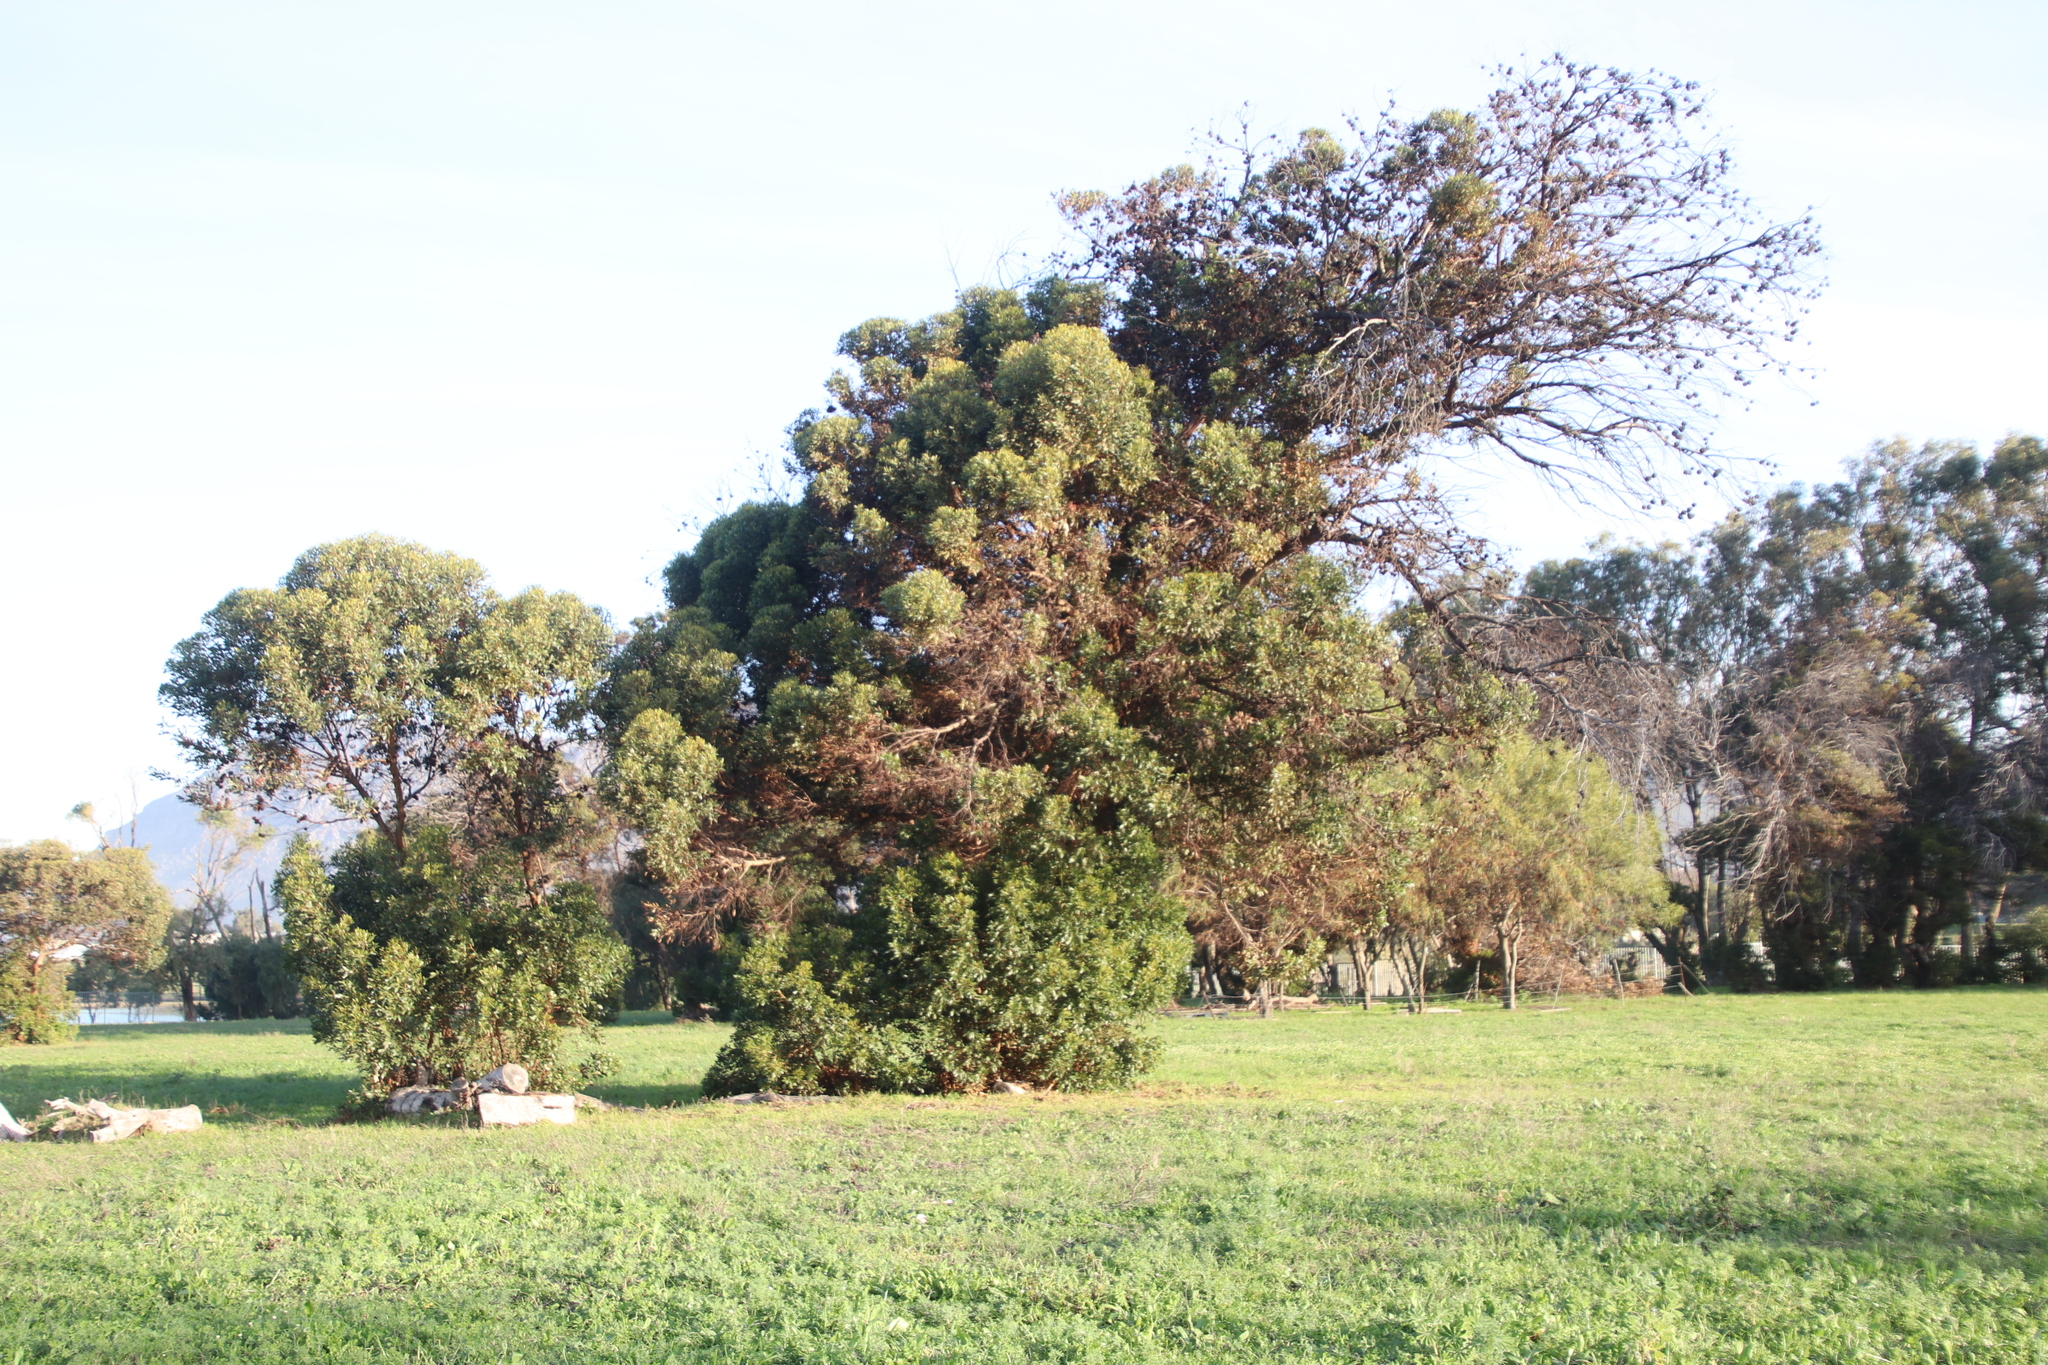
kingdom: Plantae
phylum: Tracheophyta
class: Magnoliopsida
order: Myrtales
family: Myrtaceae
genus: Eucalyptus
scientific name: Eucalyptus conferruminata
